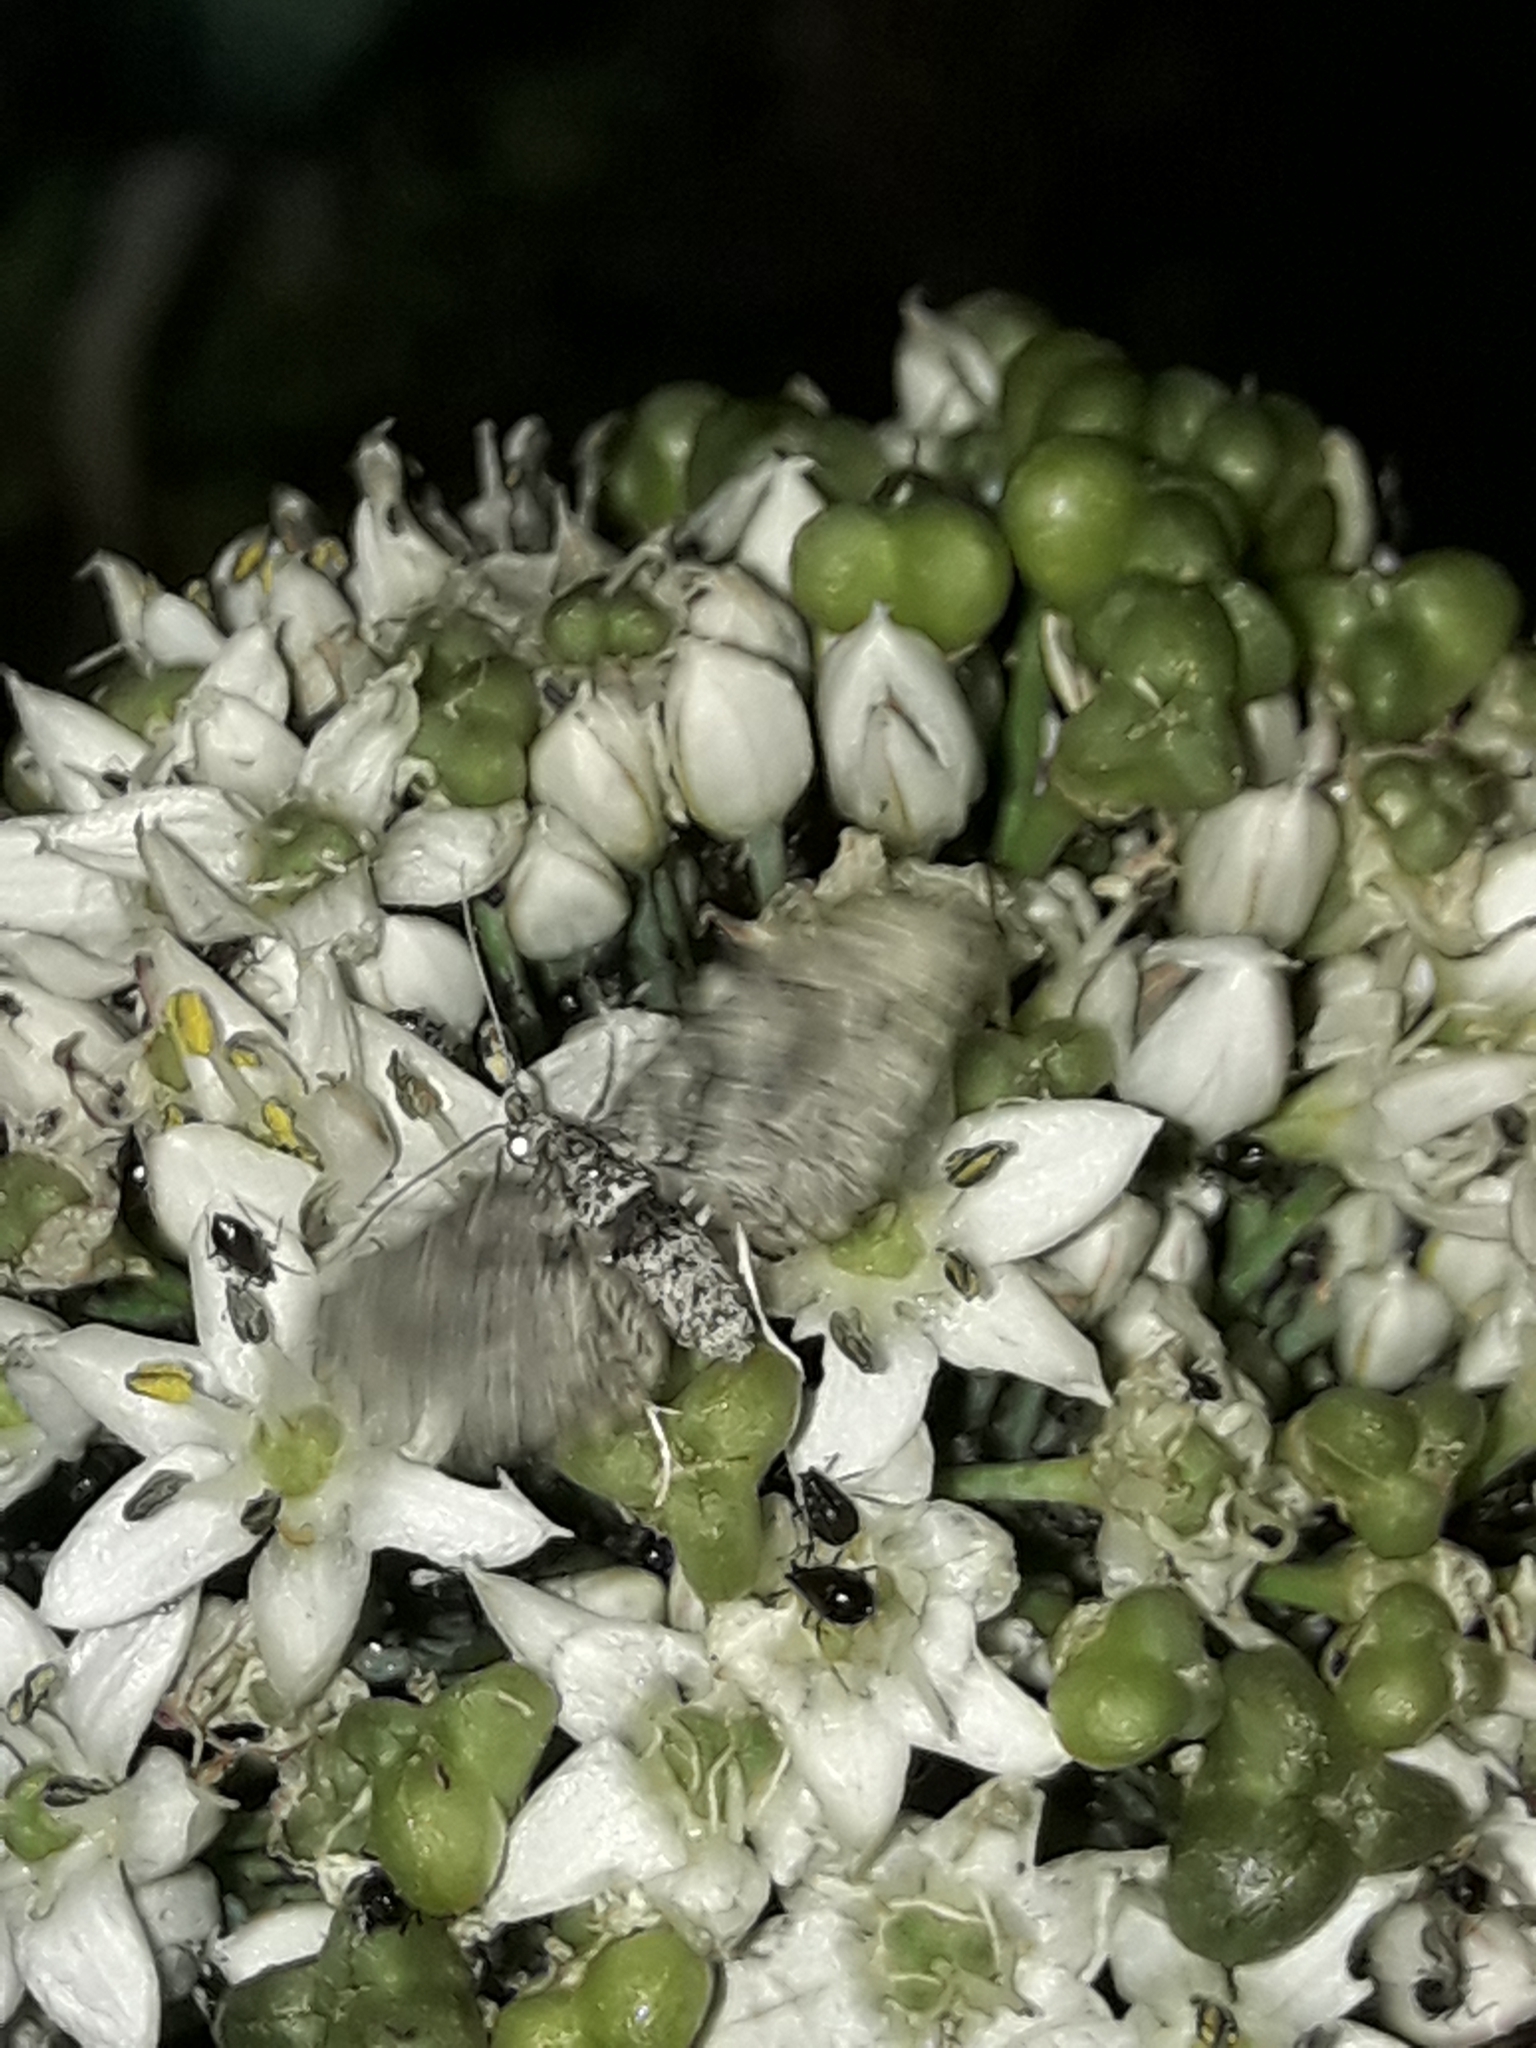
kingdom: Animalia
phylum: Arthropoda
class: Insecta
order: Lepidoptera
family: Geometridae
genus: Phrissogonus
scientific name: Phrissogonus laticostata
